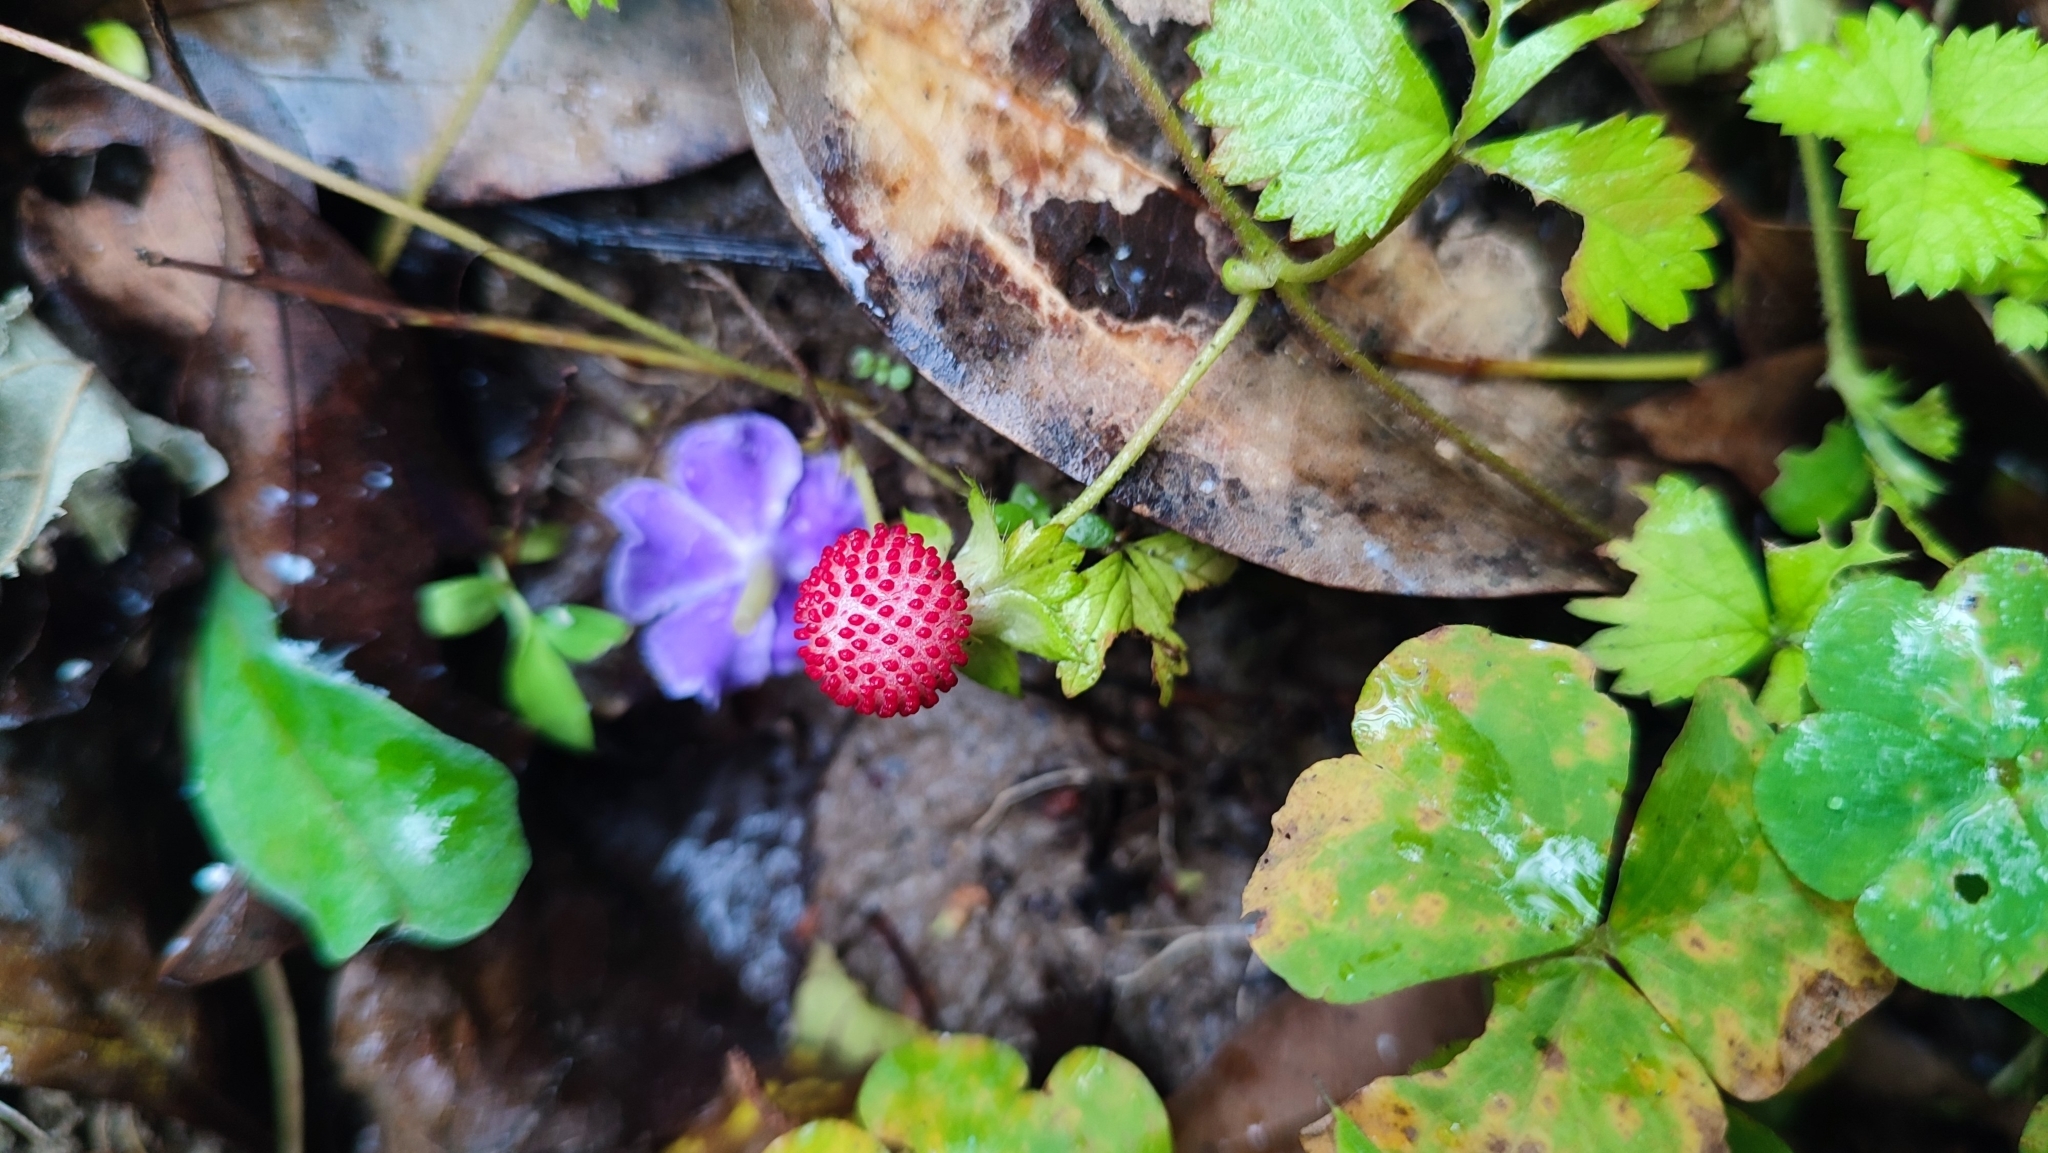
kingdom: Plantae
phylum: Tracheophyta
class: Magnoliopsida
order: Rosales
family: Rosaceae
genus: Potentilla
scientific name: Potentilla wallichiana
